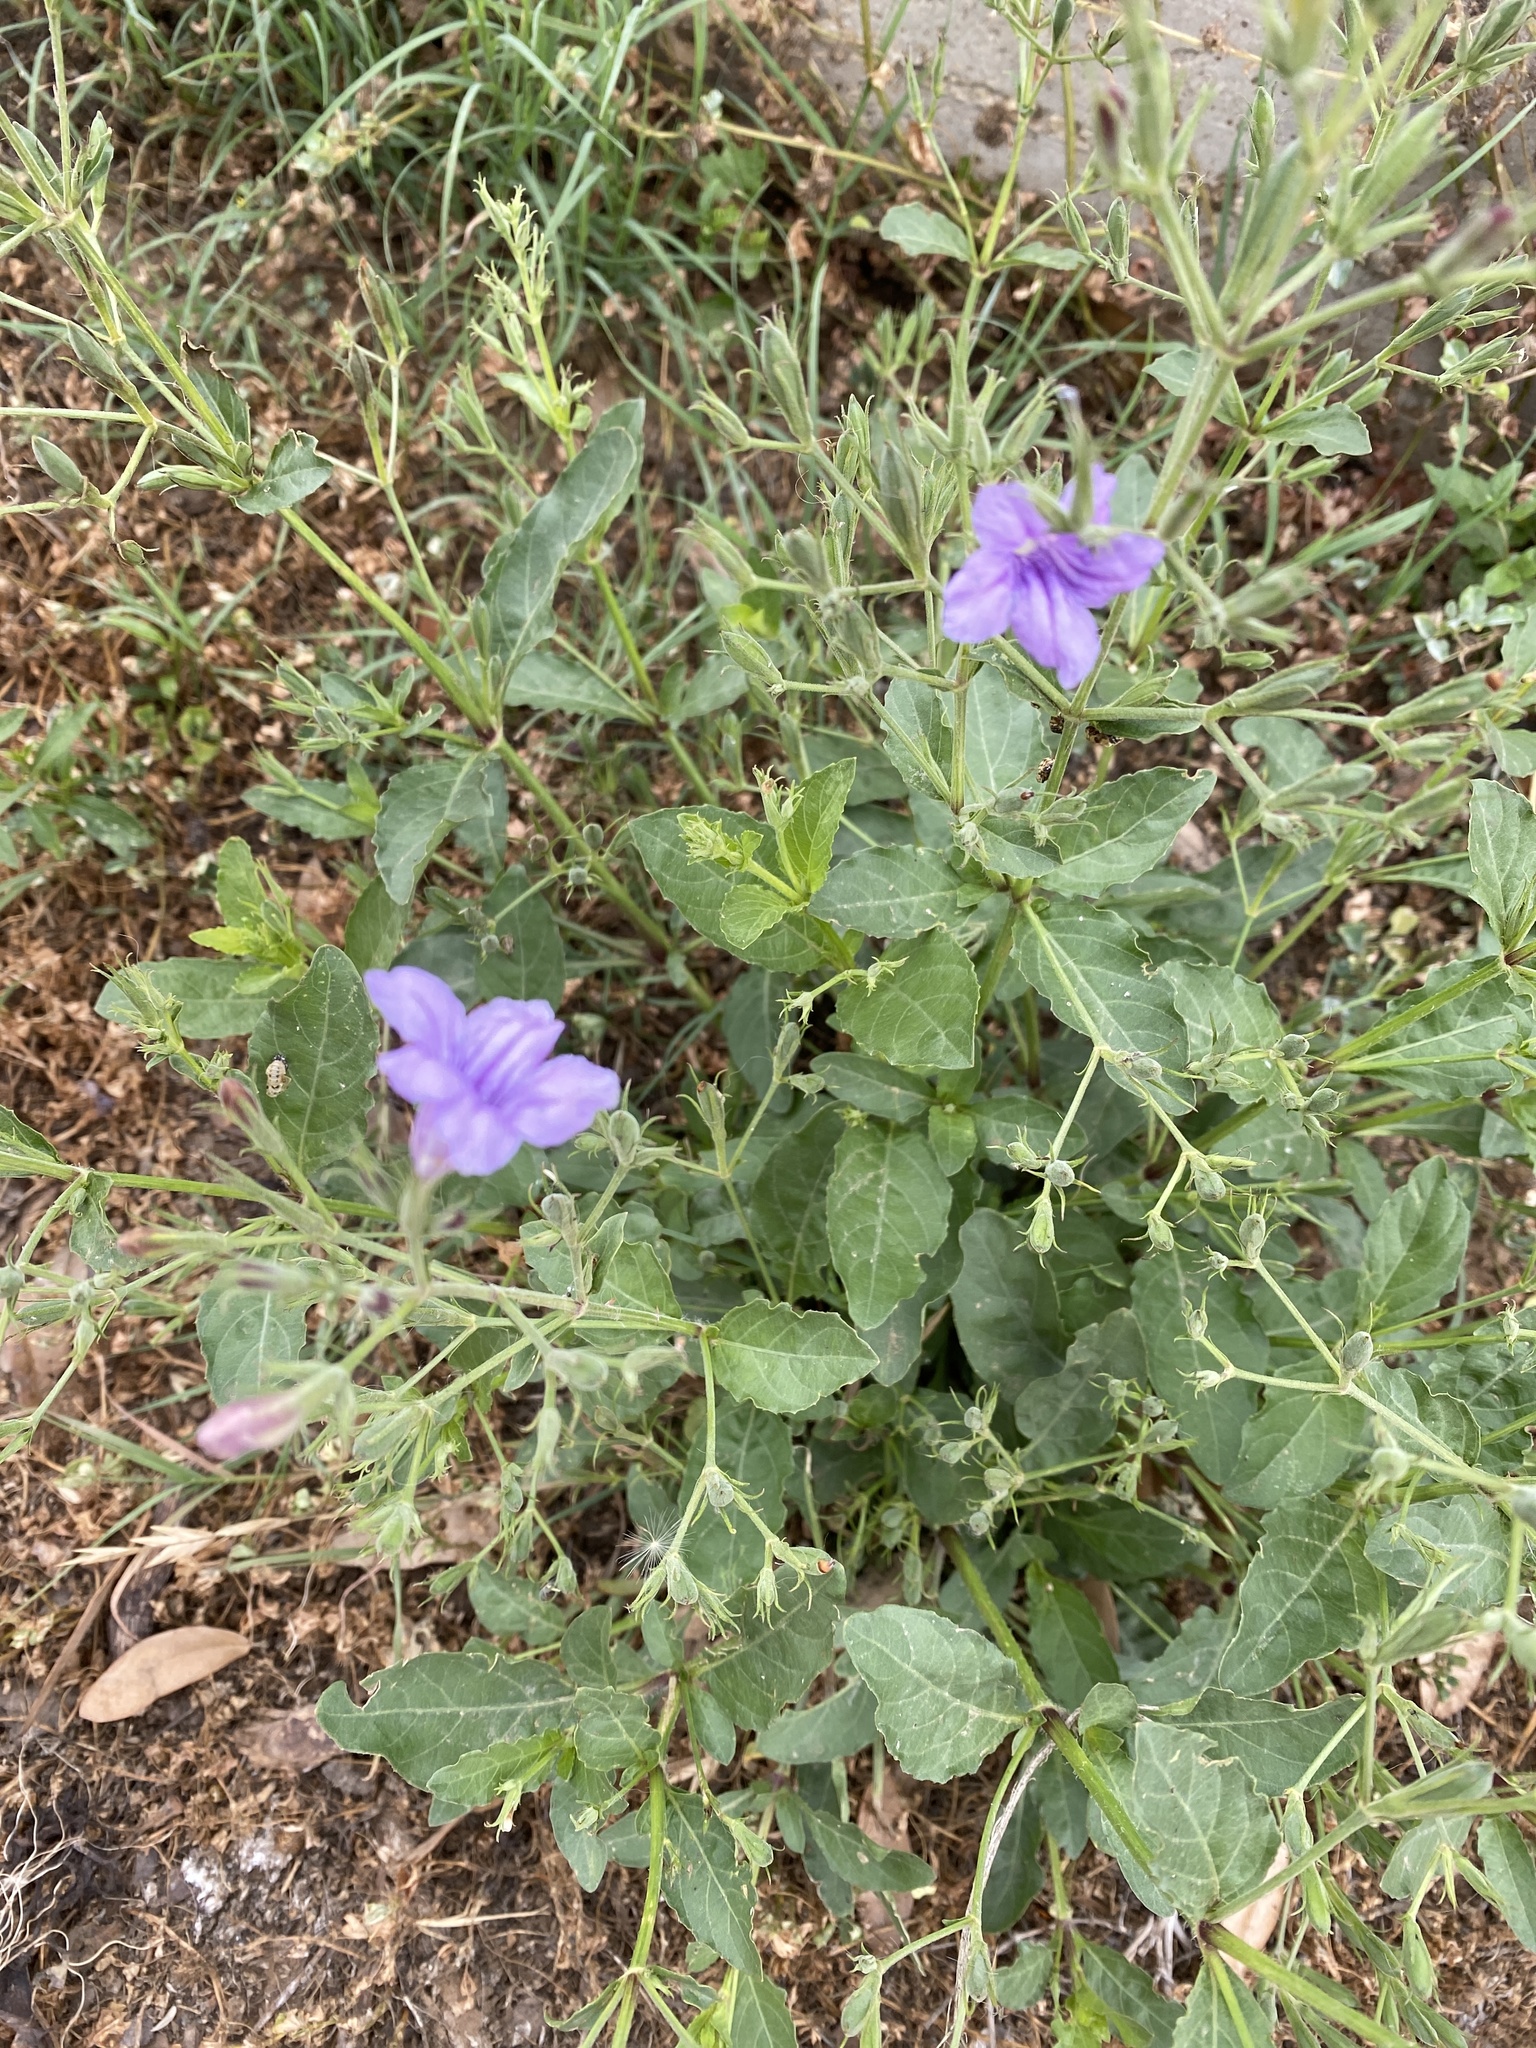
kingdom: Plantae
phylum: Tracheophyta
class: Magnoliopsida
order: Lamiales
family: Acanthaceae
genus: Ruellia
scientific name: Ruellia ciliatiflora
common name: Hairyflower wild petunia
